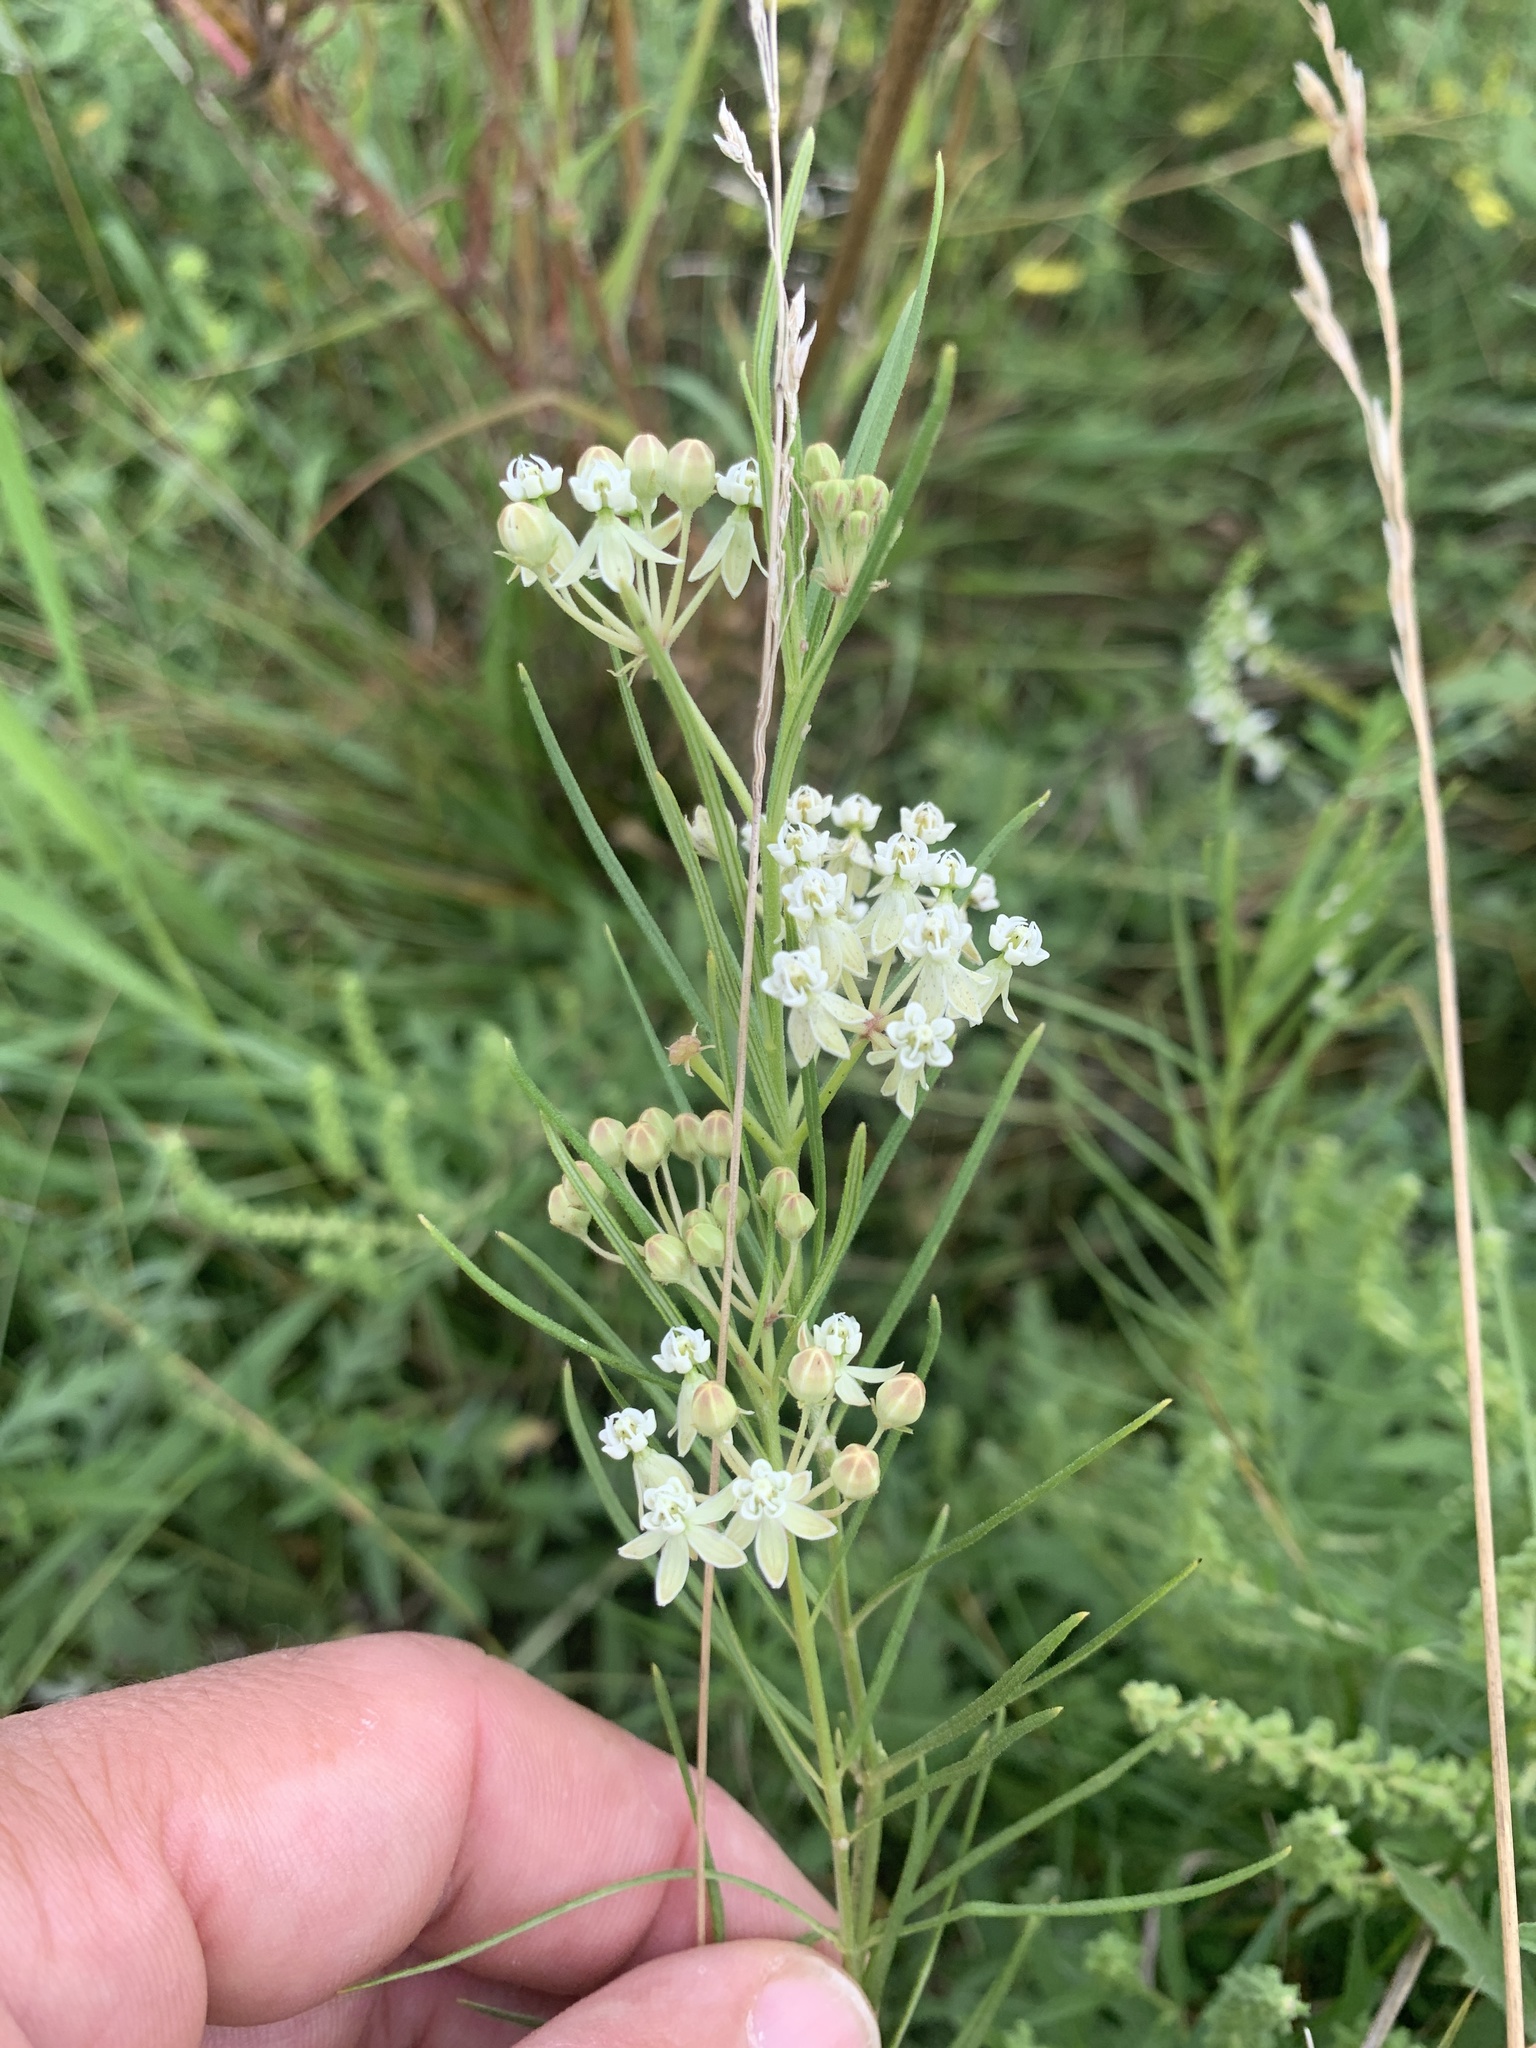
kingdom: Plantae
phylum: Tracheophyta
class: Magnoliopsida
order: Gentianales
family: Apocynaceae
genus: Asclepias
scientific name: Asclepias verticillata
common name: Eastern whorled milkweed
